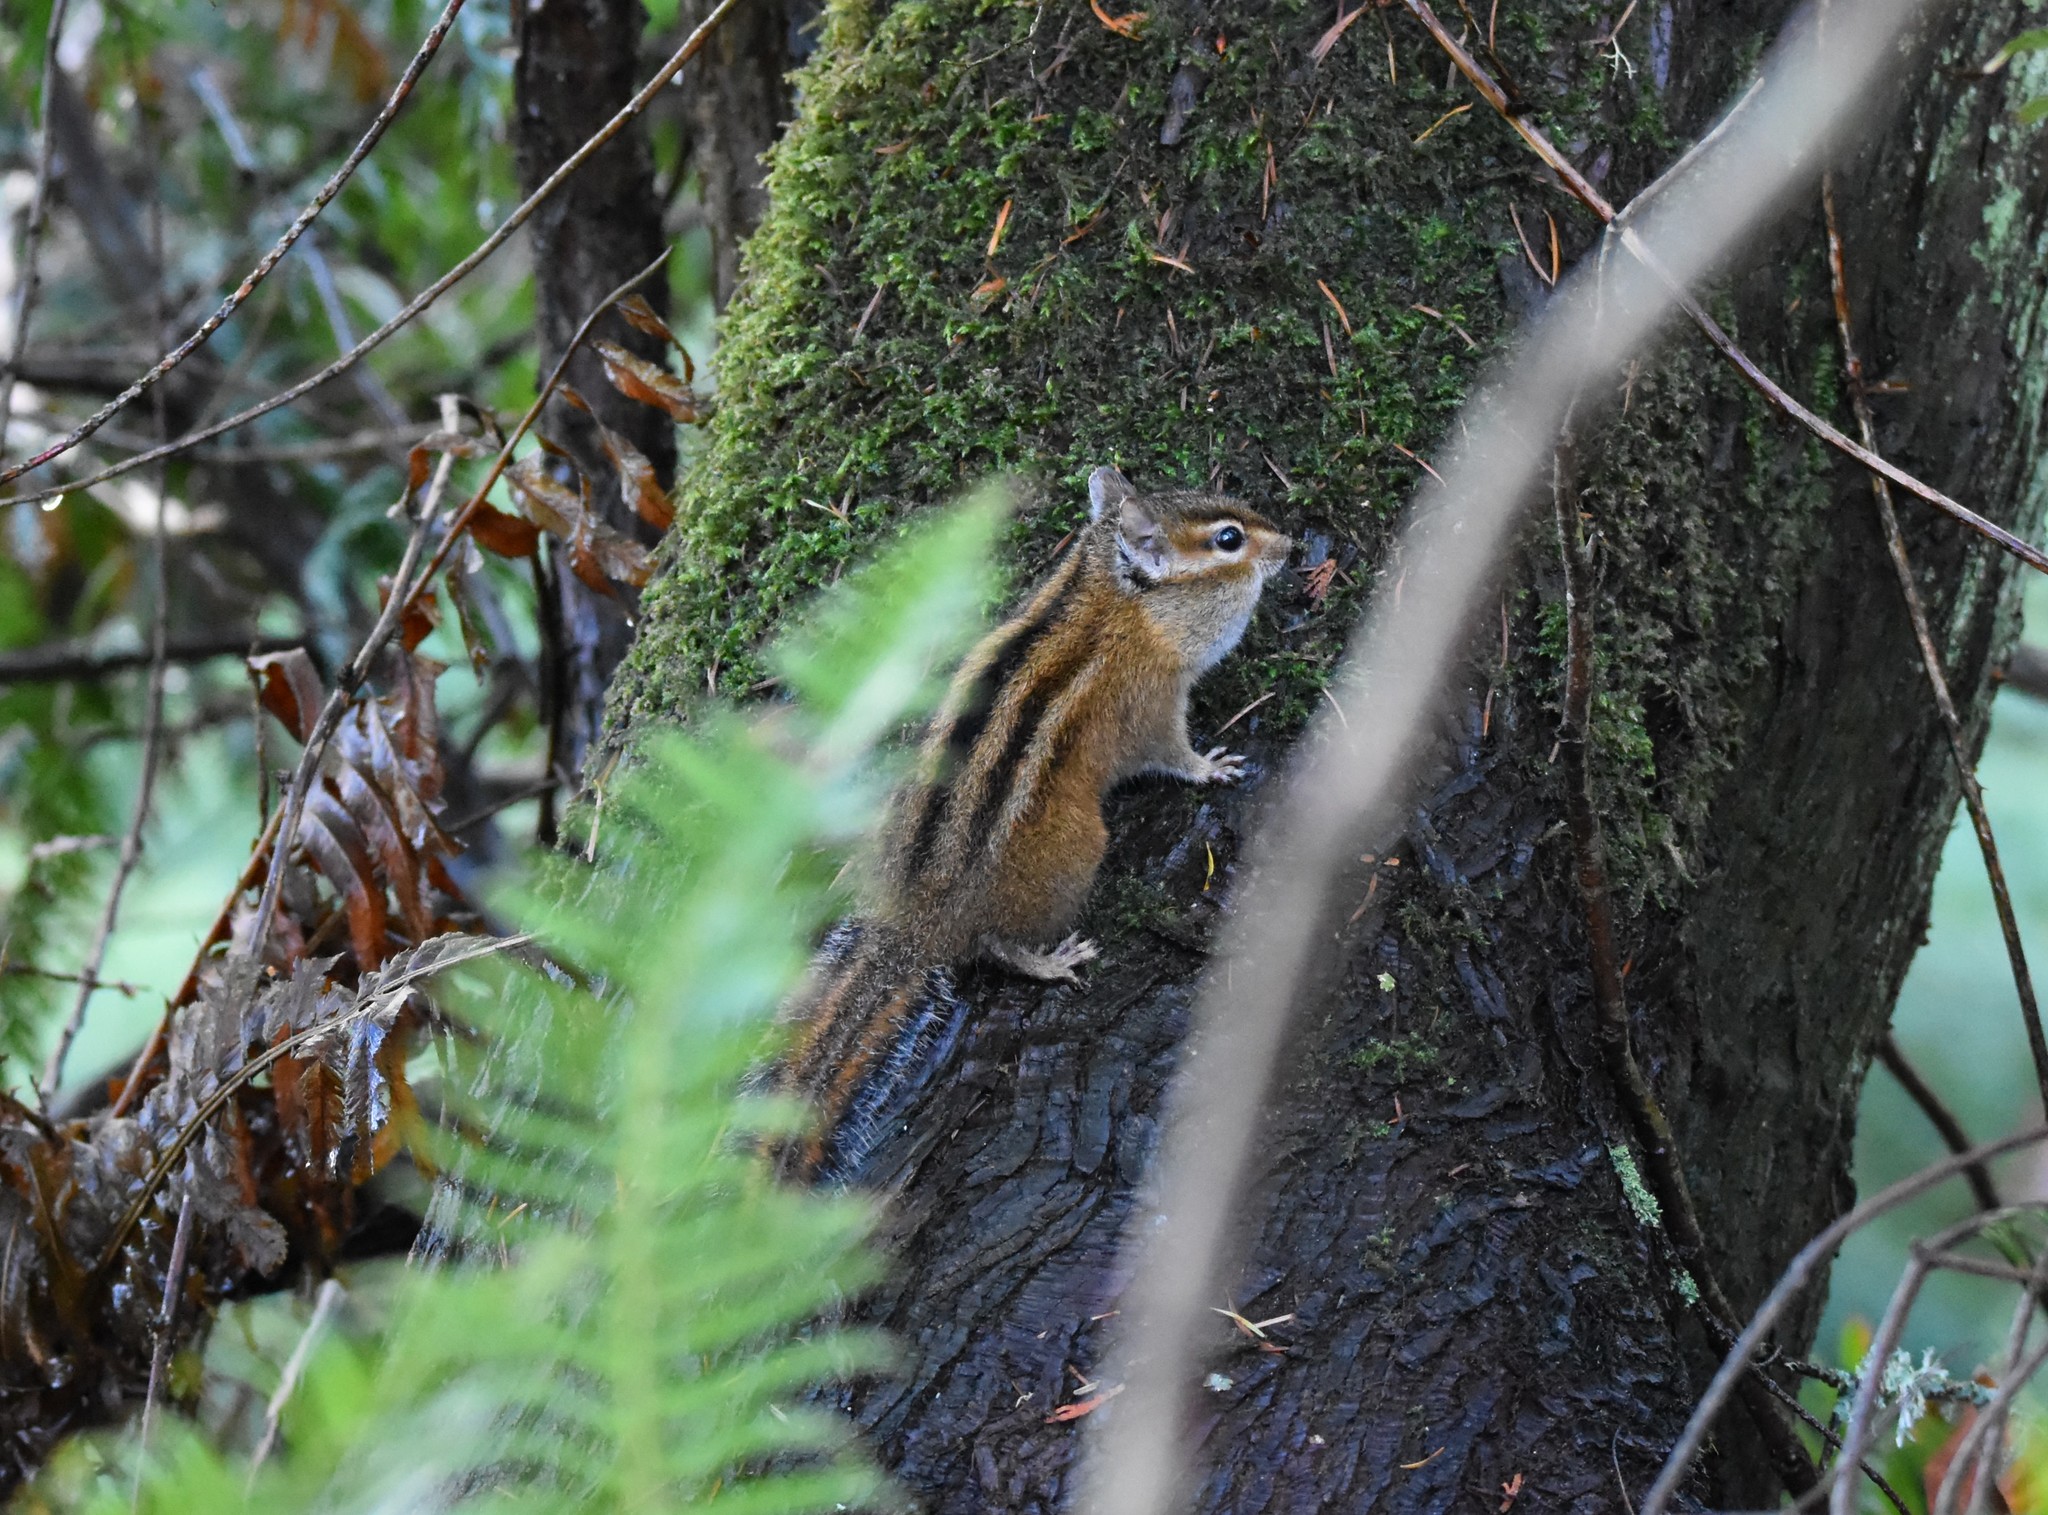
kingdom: Animalia
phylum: Chordata
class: Mammalia
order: Rodentia
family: Sciuridae
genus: Tamias
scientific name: Tamias townsendii
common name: Townsend's chipmunk
